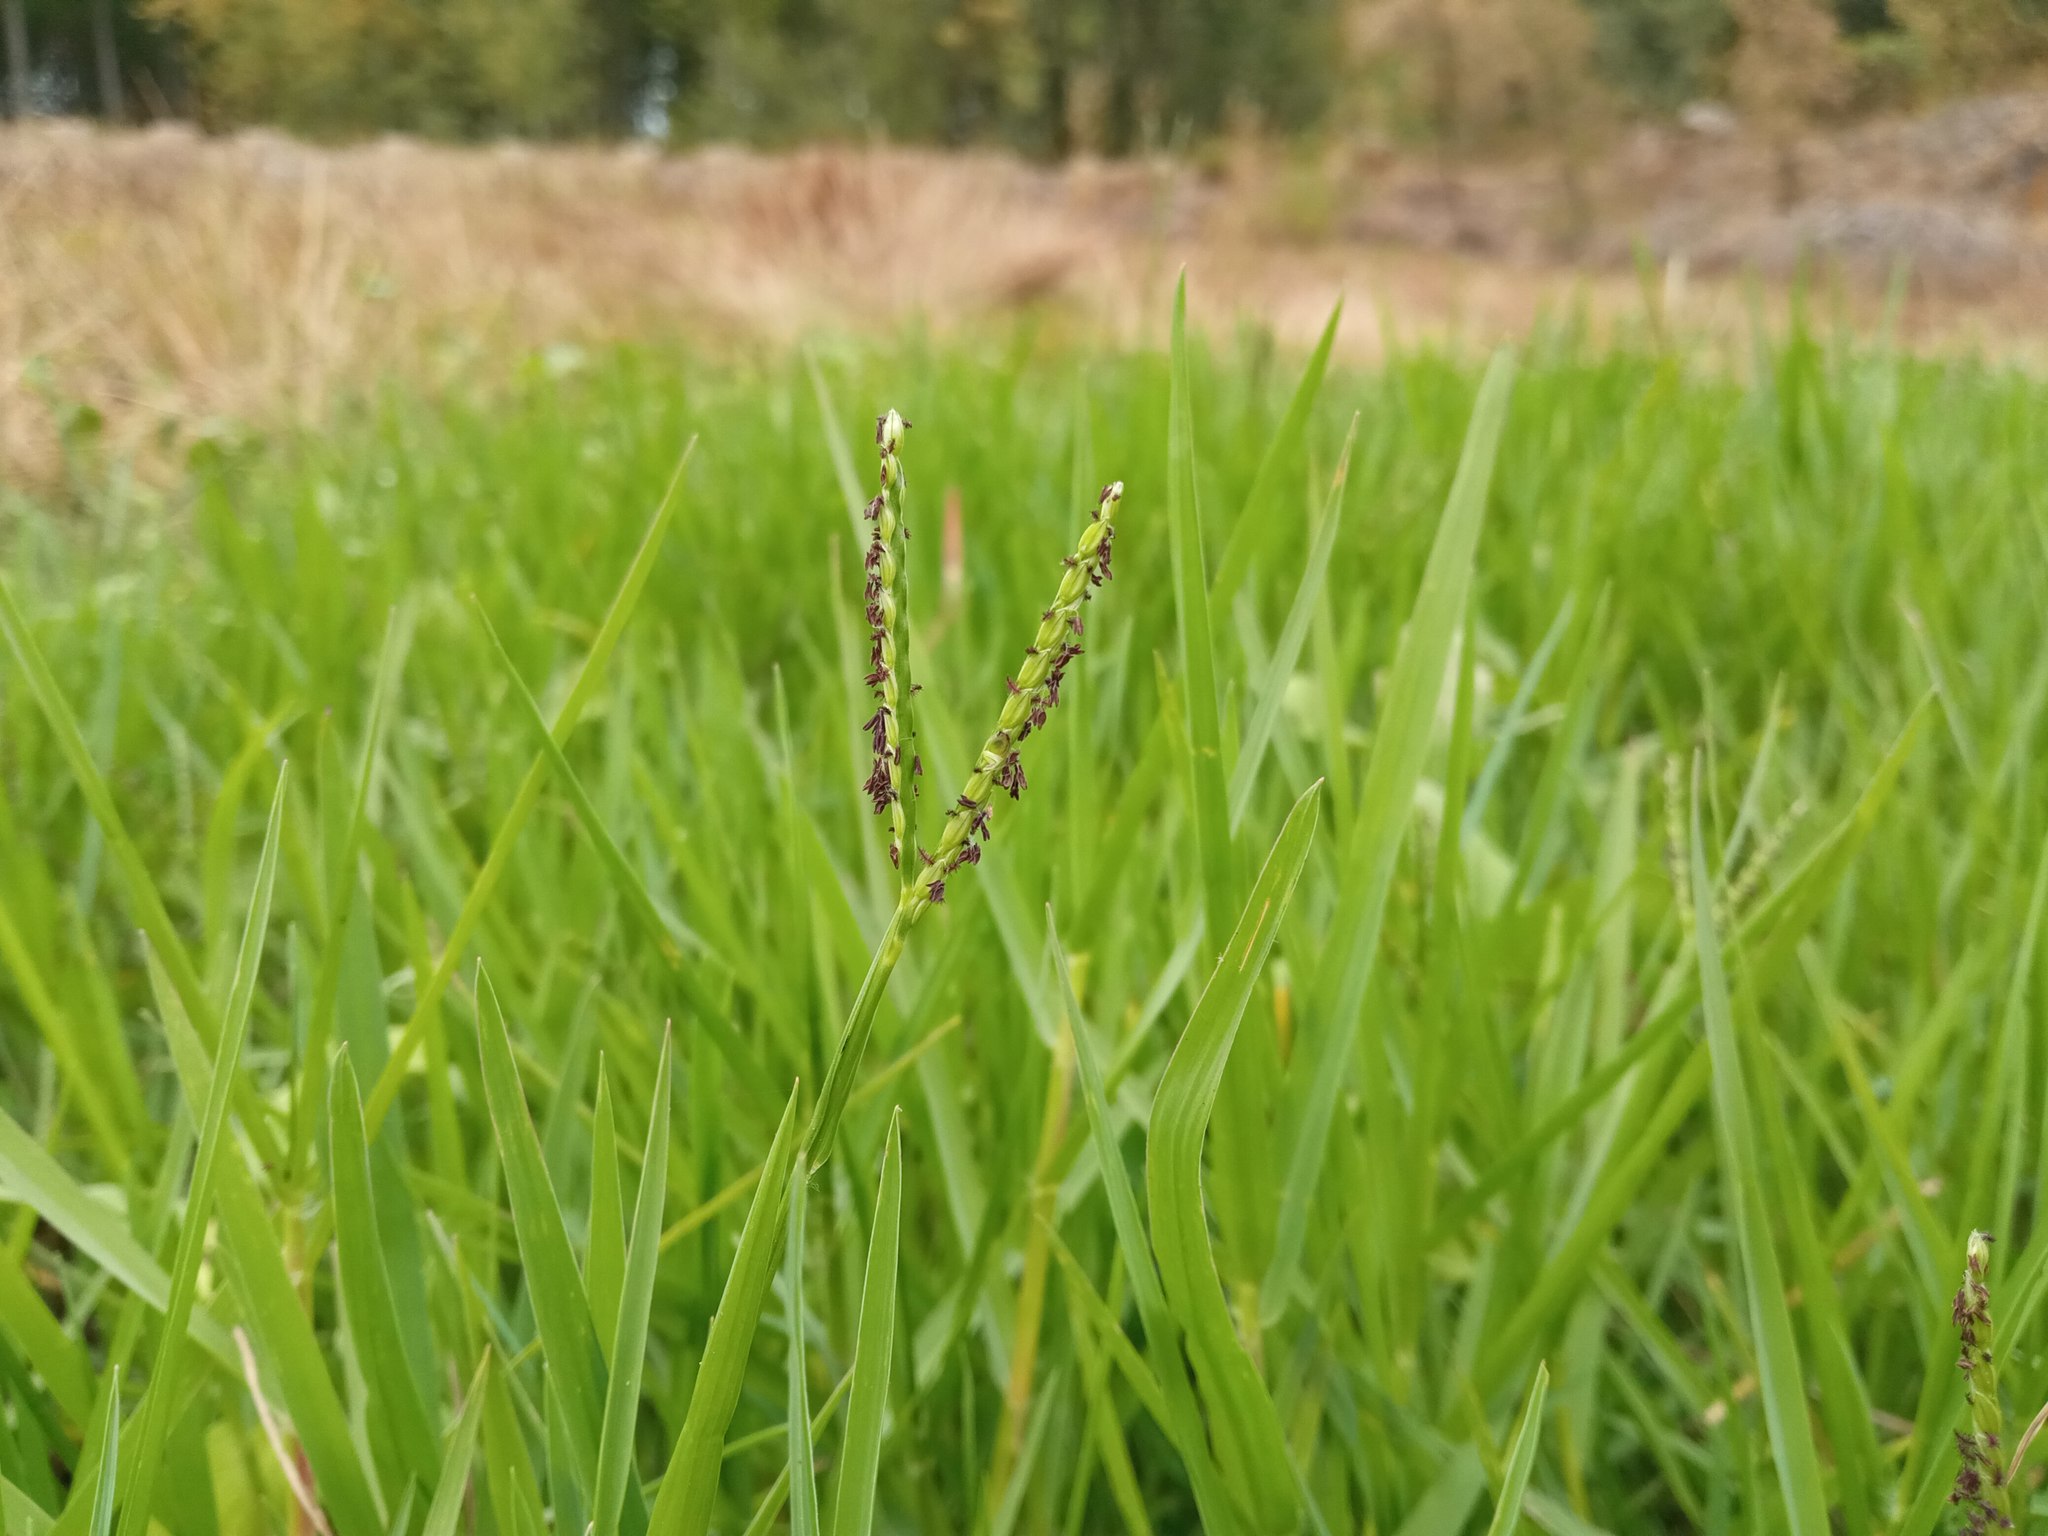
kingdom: Plantae
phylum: Tracheophyta
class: Liliopsida
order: Poales
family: Poaceae
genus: Paspalum
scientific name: Paspalum distichum
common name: Knotgrass
